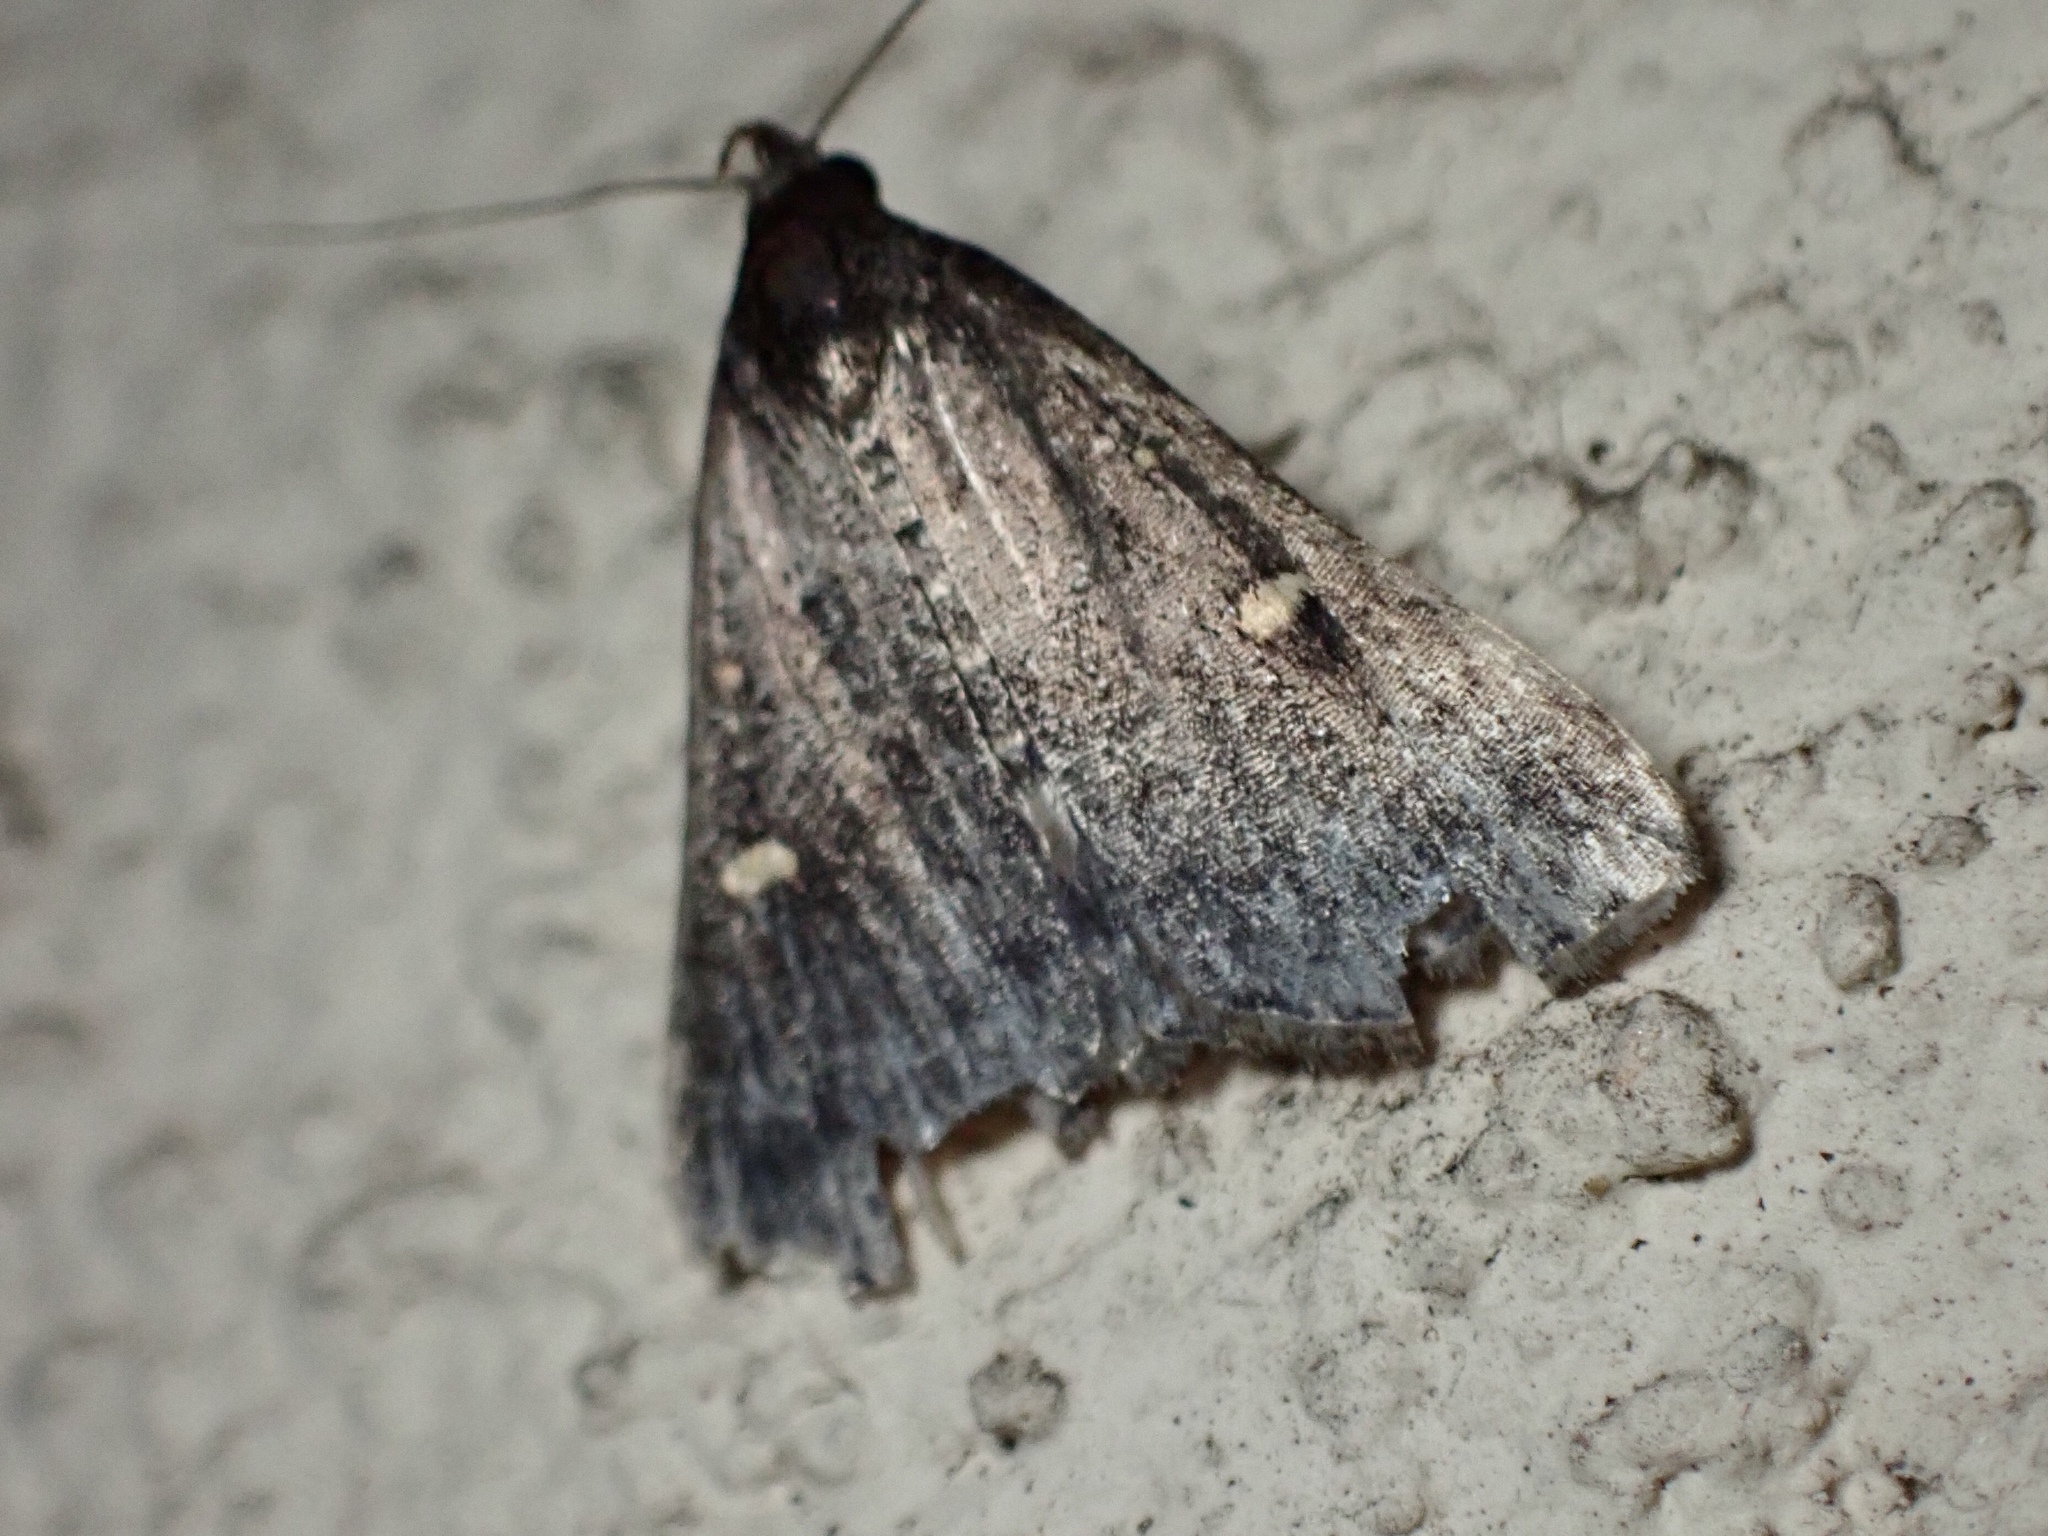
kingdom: Animalia
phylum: Arthropoda
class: Insecta
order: Lepidoptera
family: Erebidae
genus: Tetanolita
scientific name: Tetanolita mynesalis
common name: Smoky tetanolita moth
